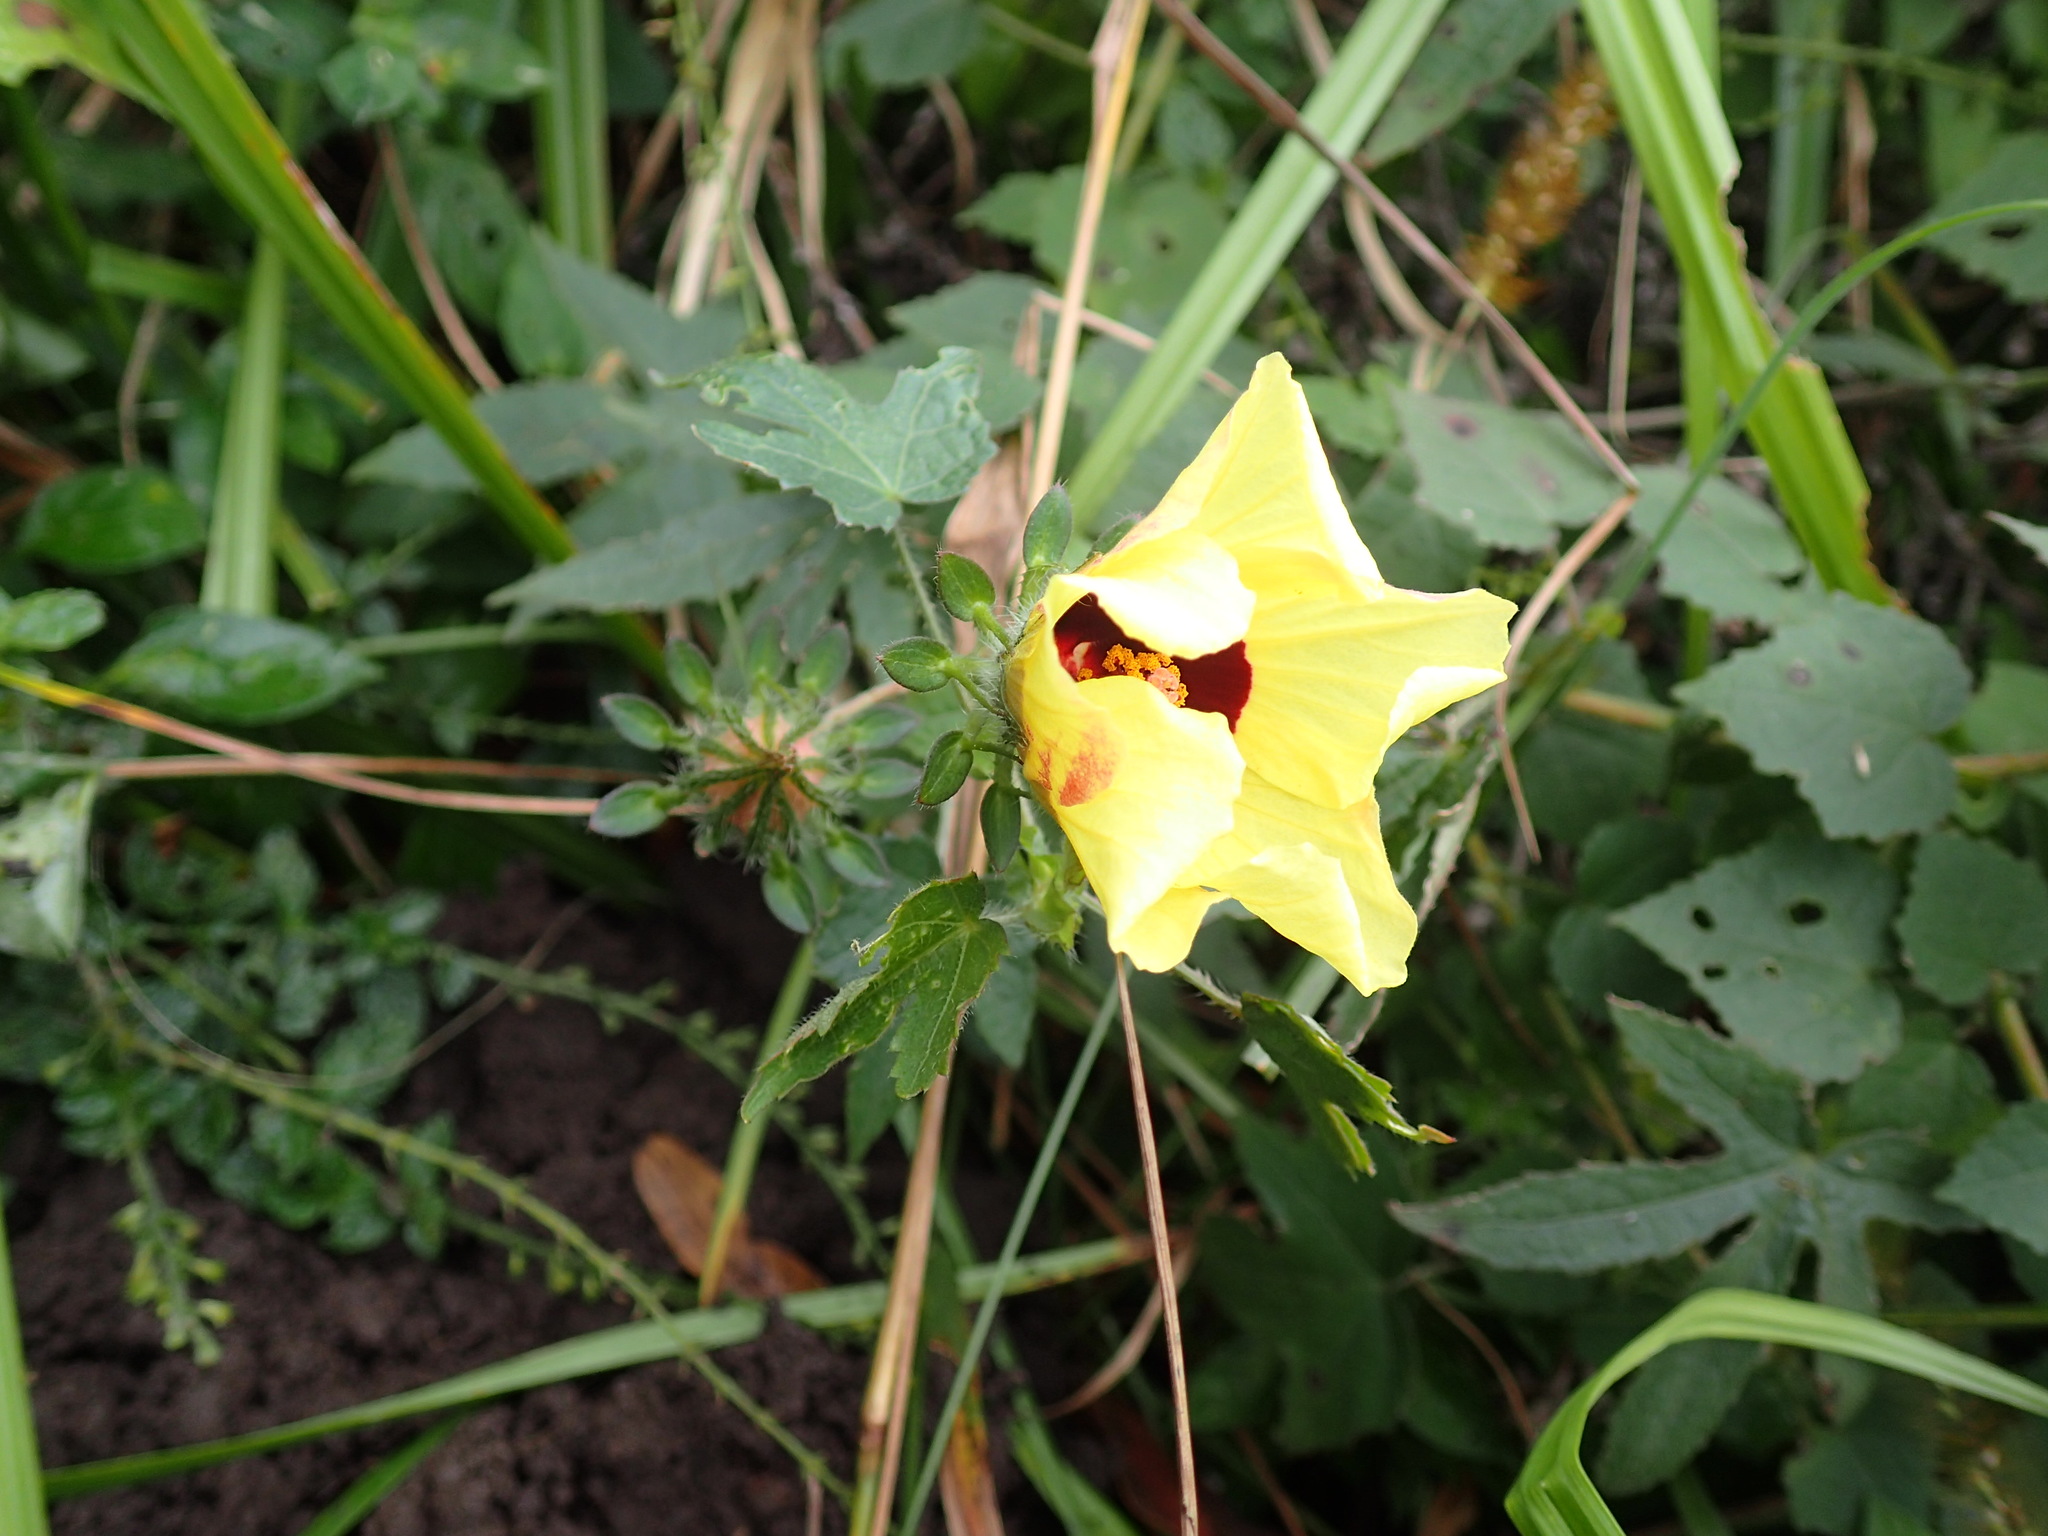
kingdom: Plantae
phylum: Tracheophyta
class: Magnoliopsida
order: Malvales
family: Malvaceae
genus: Hibiscus
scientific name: Hibiscus surattensis
